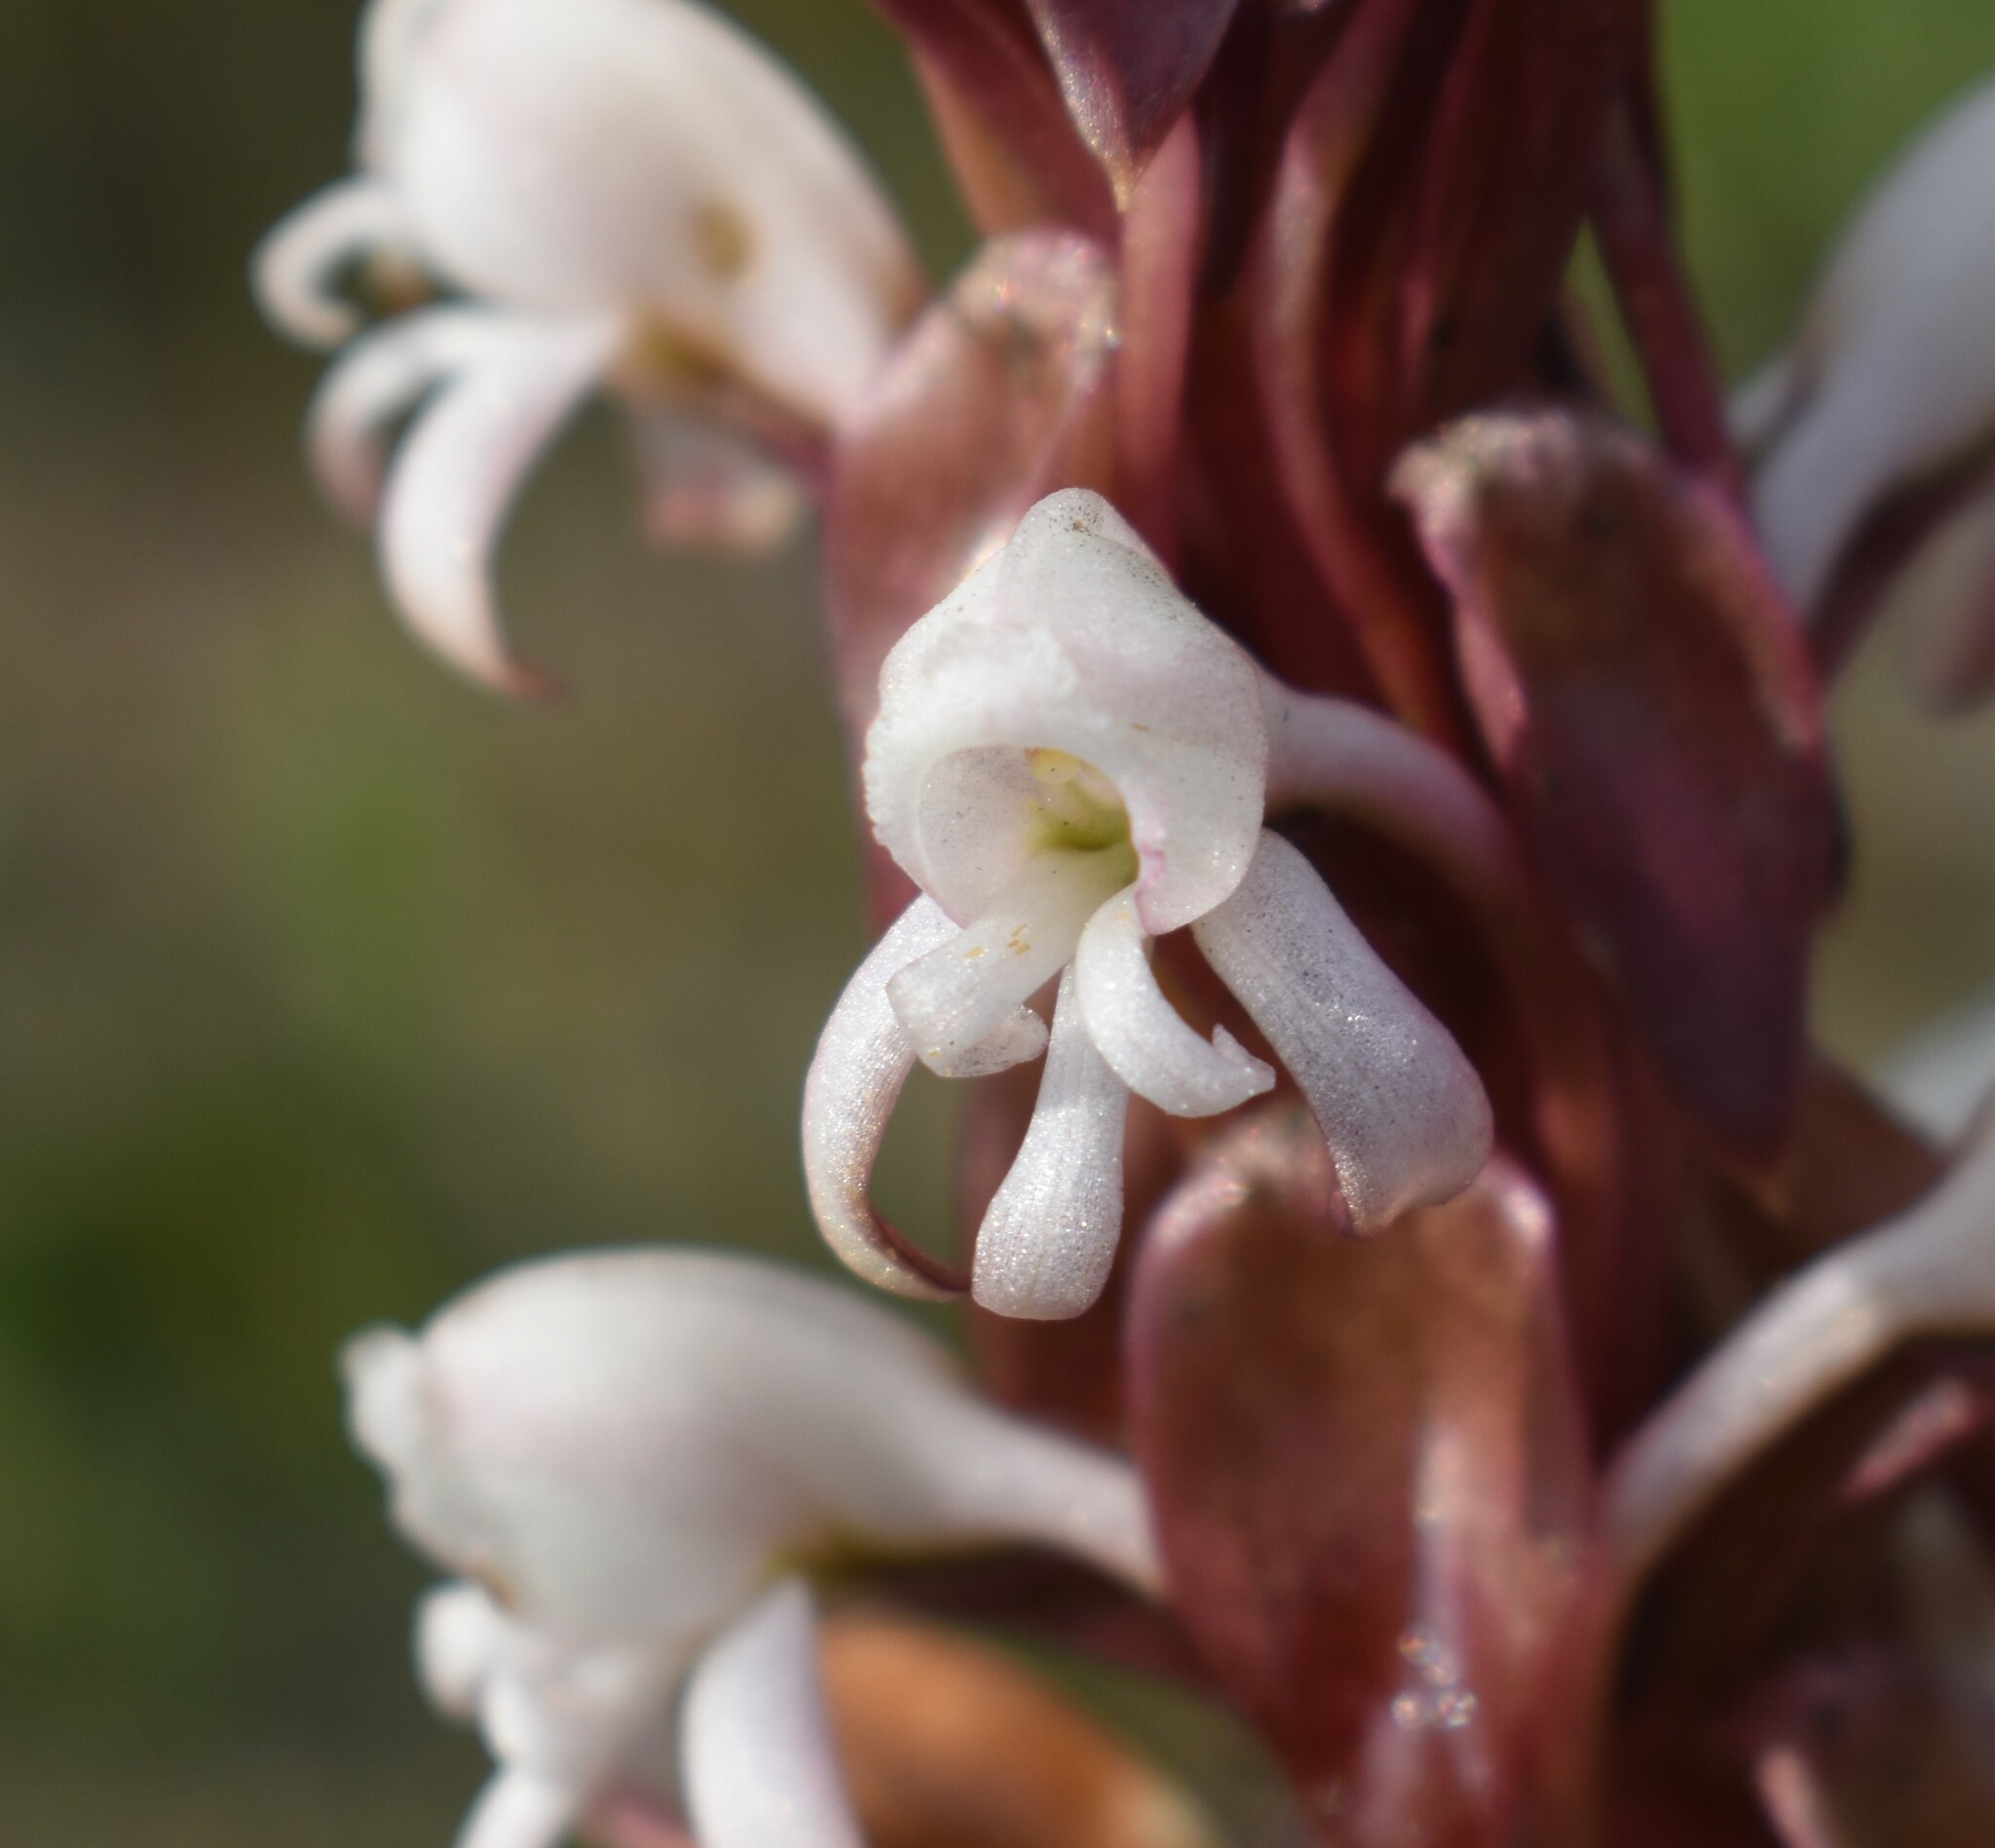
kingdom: Plantae
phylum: Tracheophyta
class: Liliopsida
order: Asparagales
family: Orchidaceae
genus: Satyrium
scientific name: Satyrium candidum
